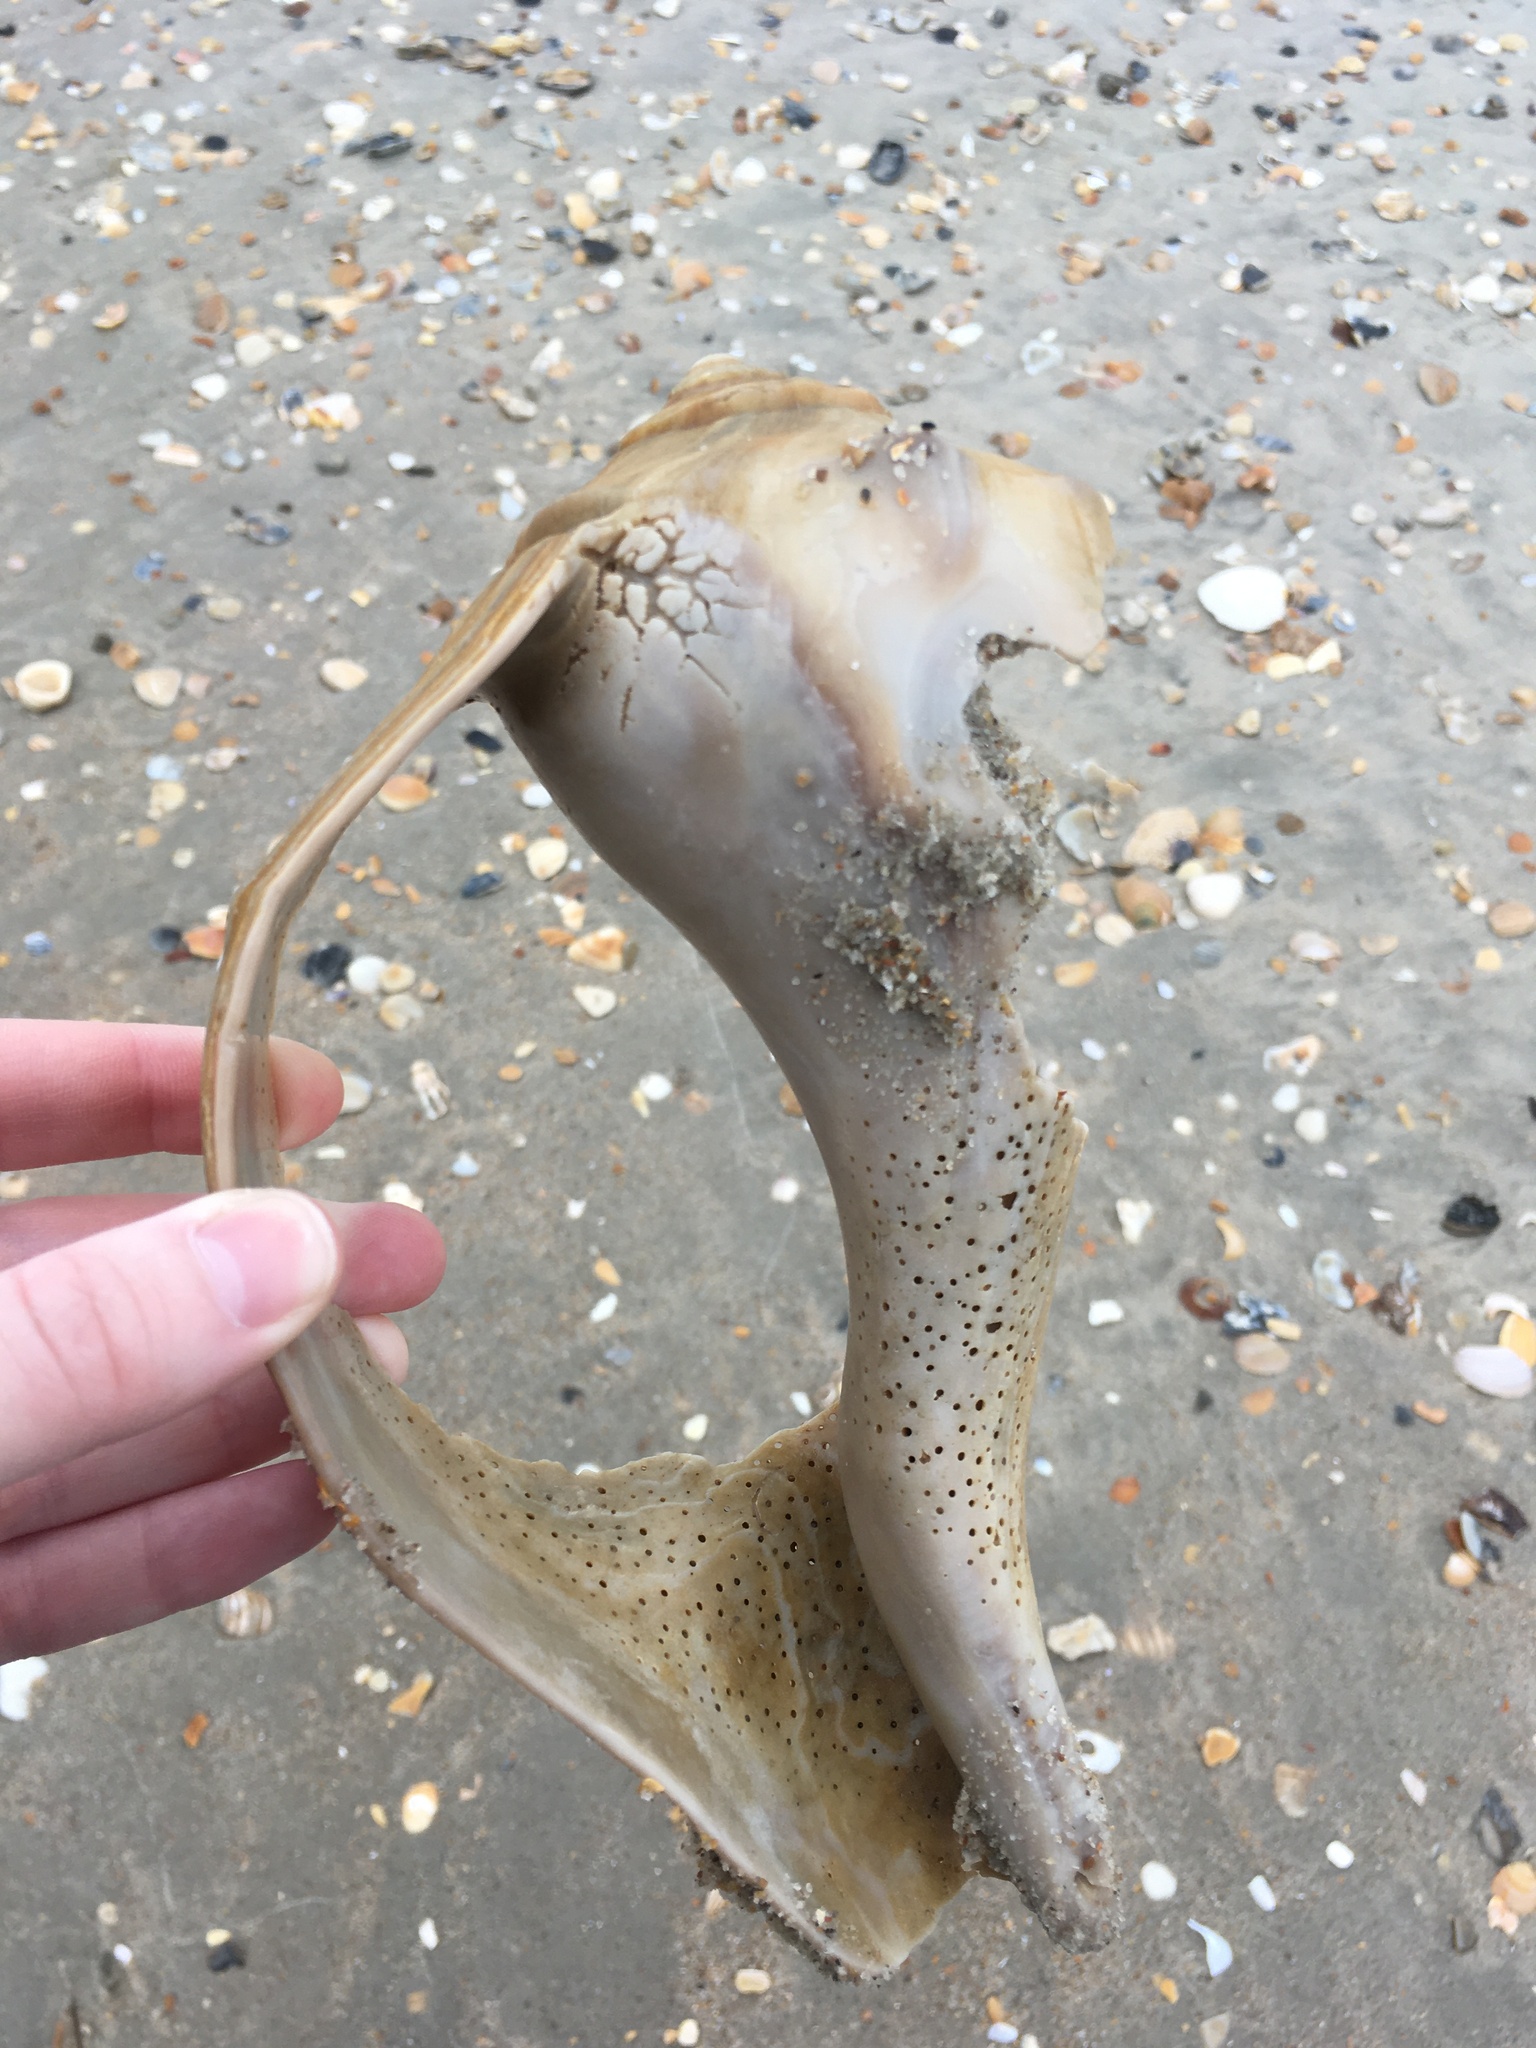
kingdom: Animalia
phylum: Mollusca
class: Gastropoda
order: Neogastropoda
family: Busyconidae
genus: Sinistrofulgur
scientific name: Sinistrofulgur sinistrum
